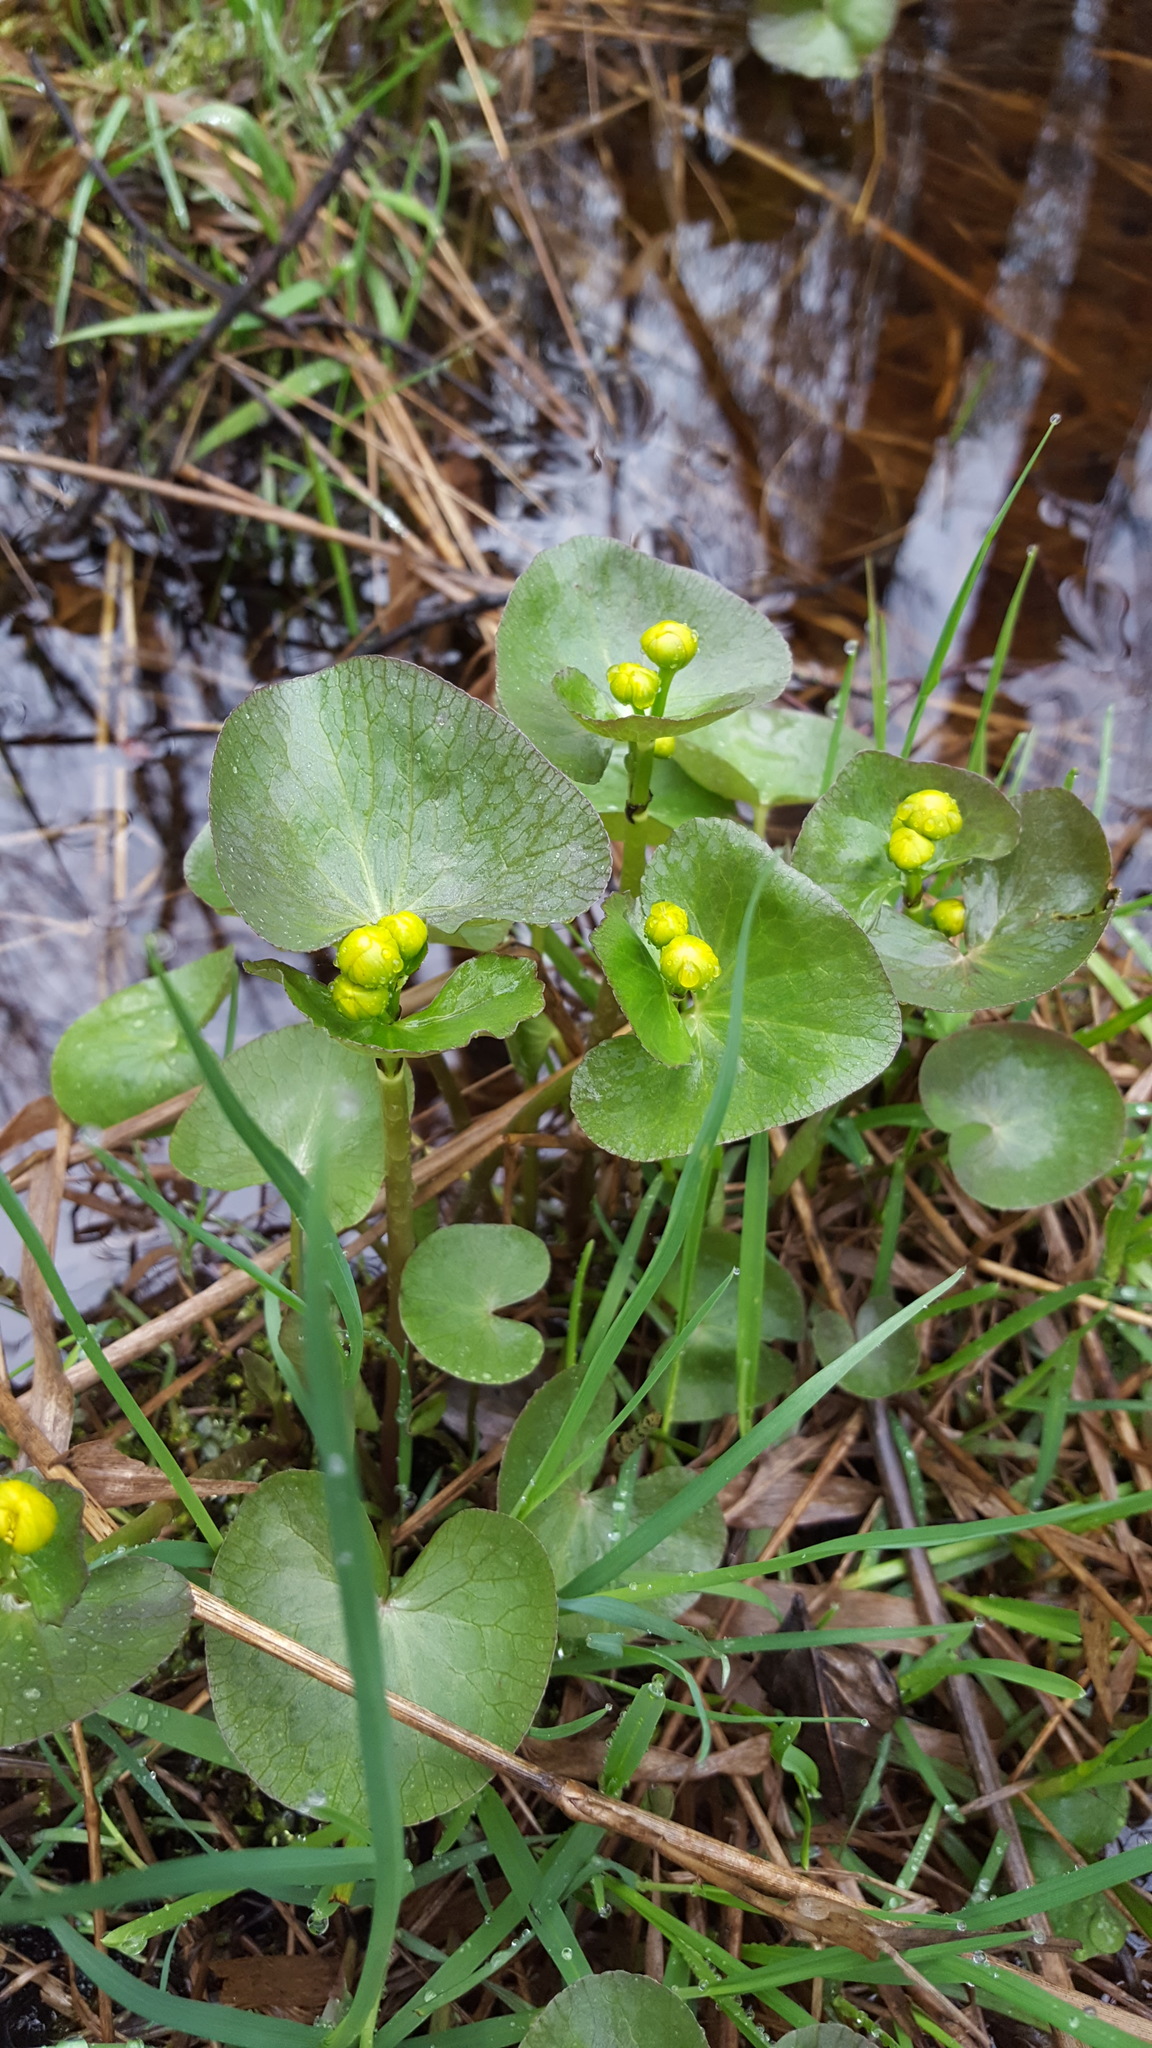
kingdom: Plantae
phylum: Tracheophyta
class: Magnoliopsida
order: Ranunculales
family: Ranunculaceae
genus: Caltha
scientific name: Caltha palustris
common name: Marsh marigold
